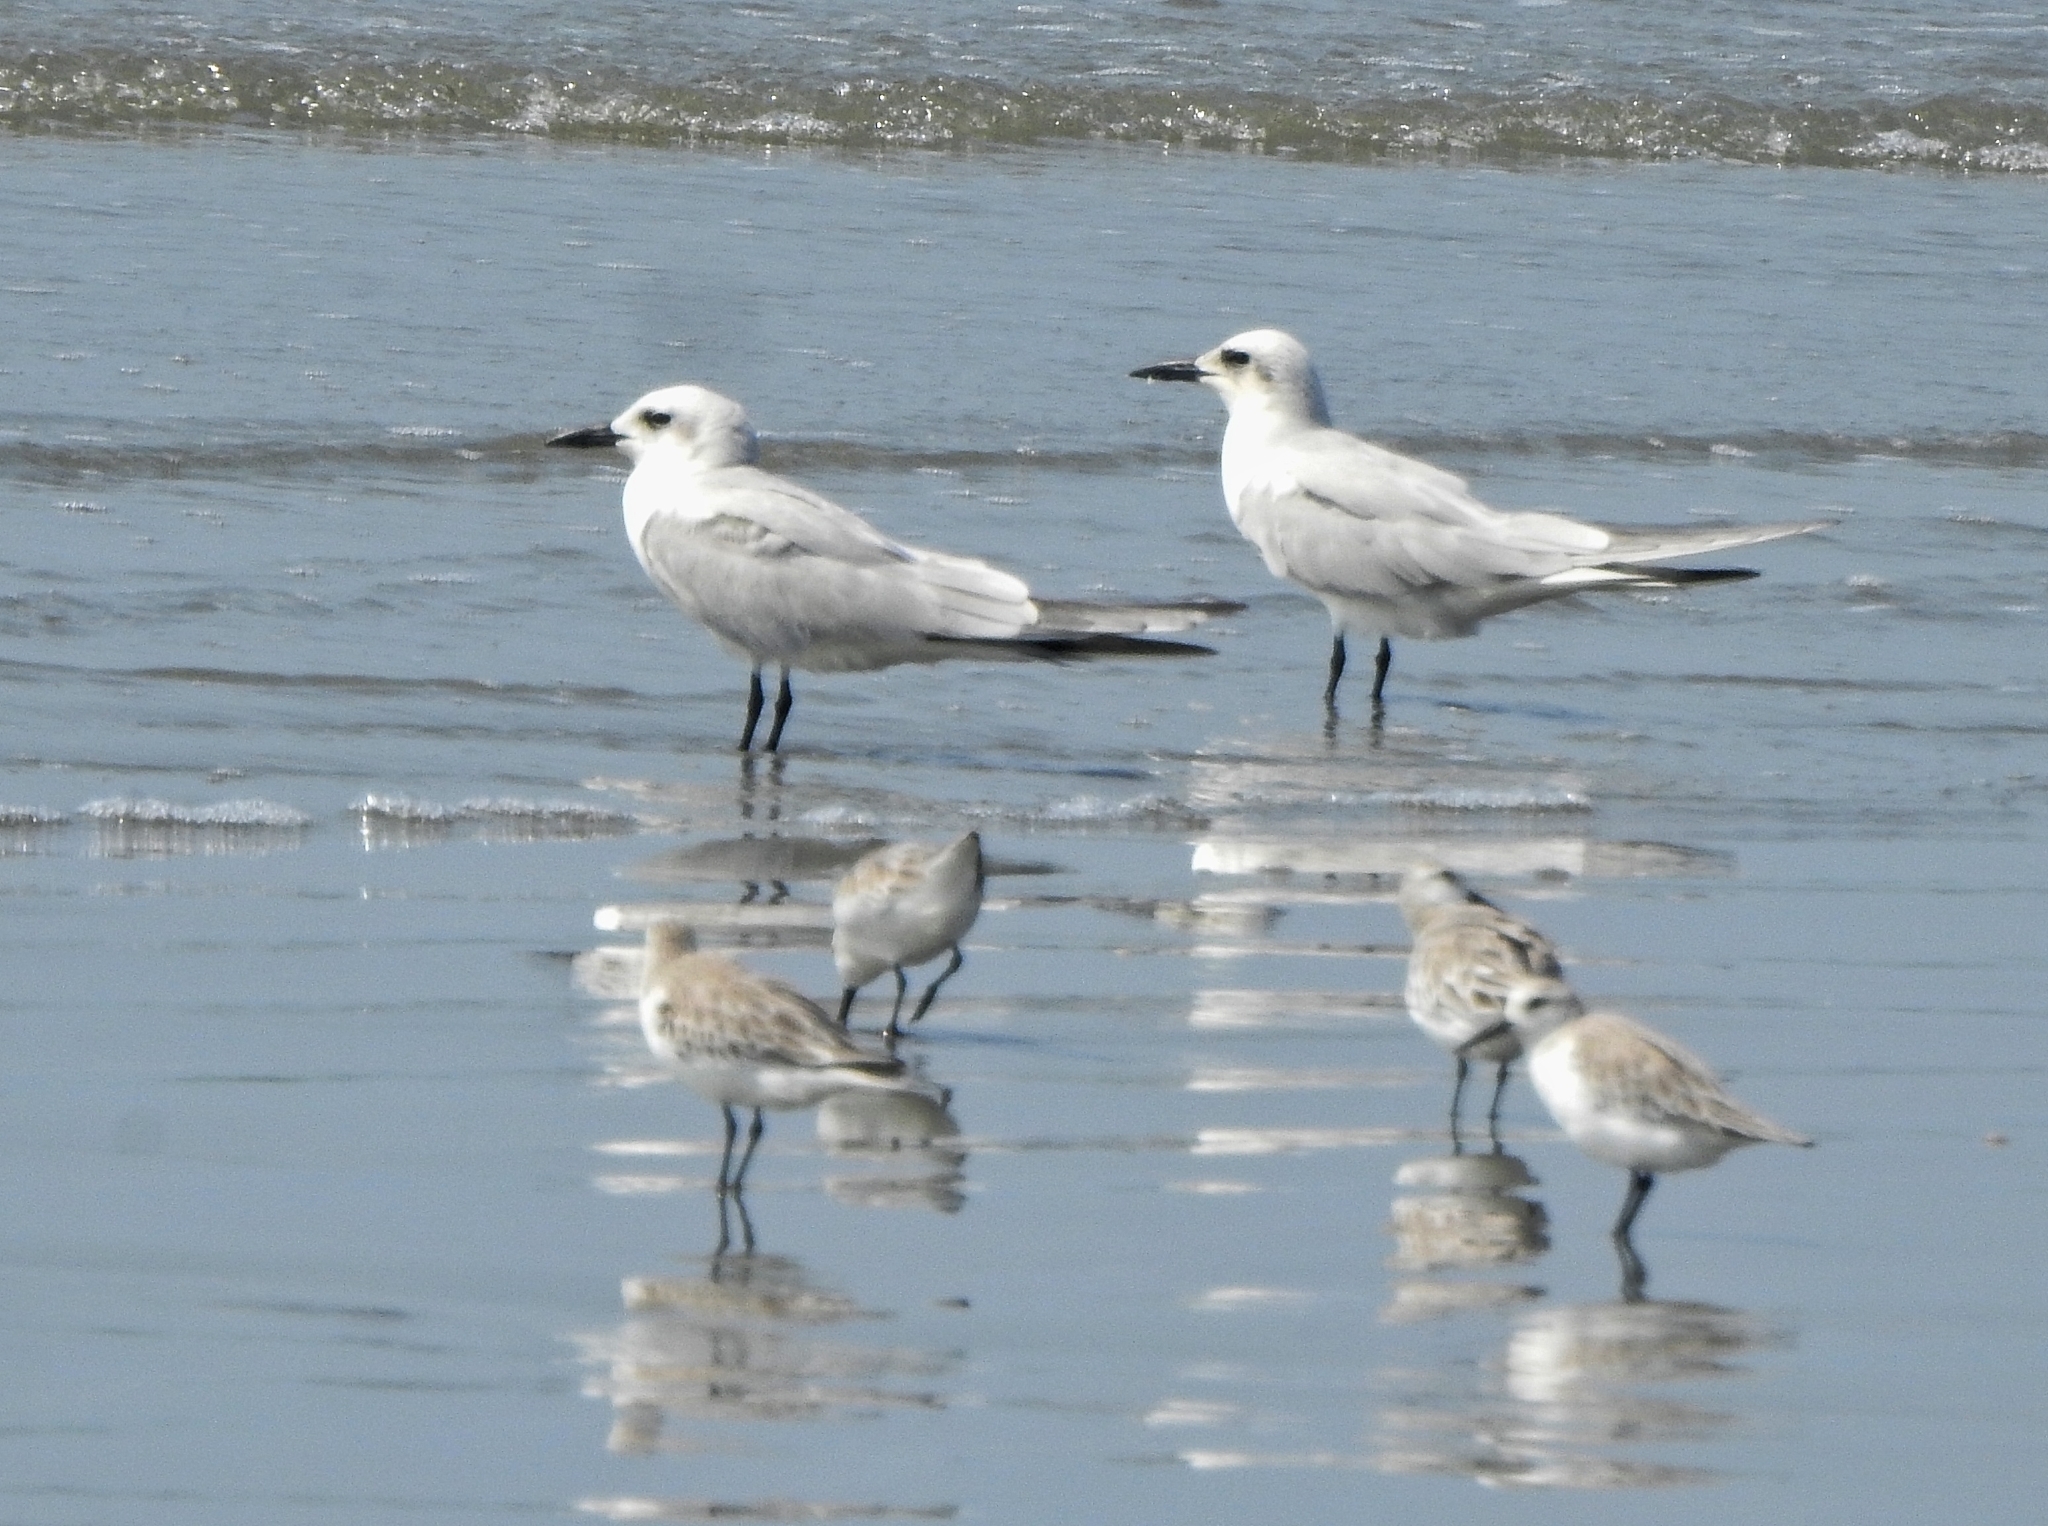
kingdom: Animalia
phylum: Chordata
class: Aves
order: Charadriiformes
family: Laridae
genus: Gelochelidon
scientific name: Gelochelidon nilotica
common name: Gull-billed tern
